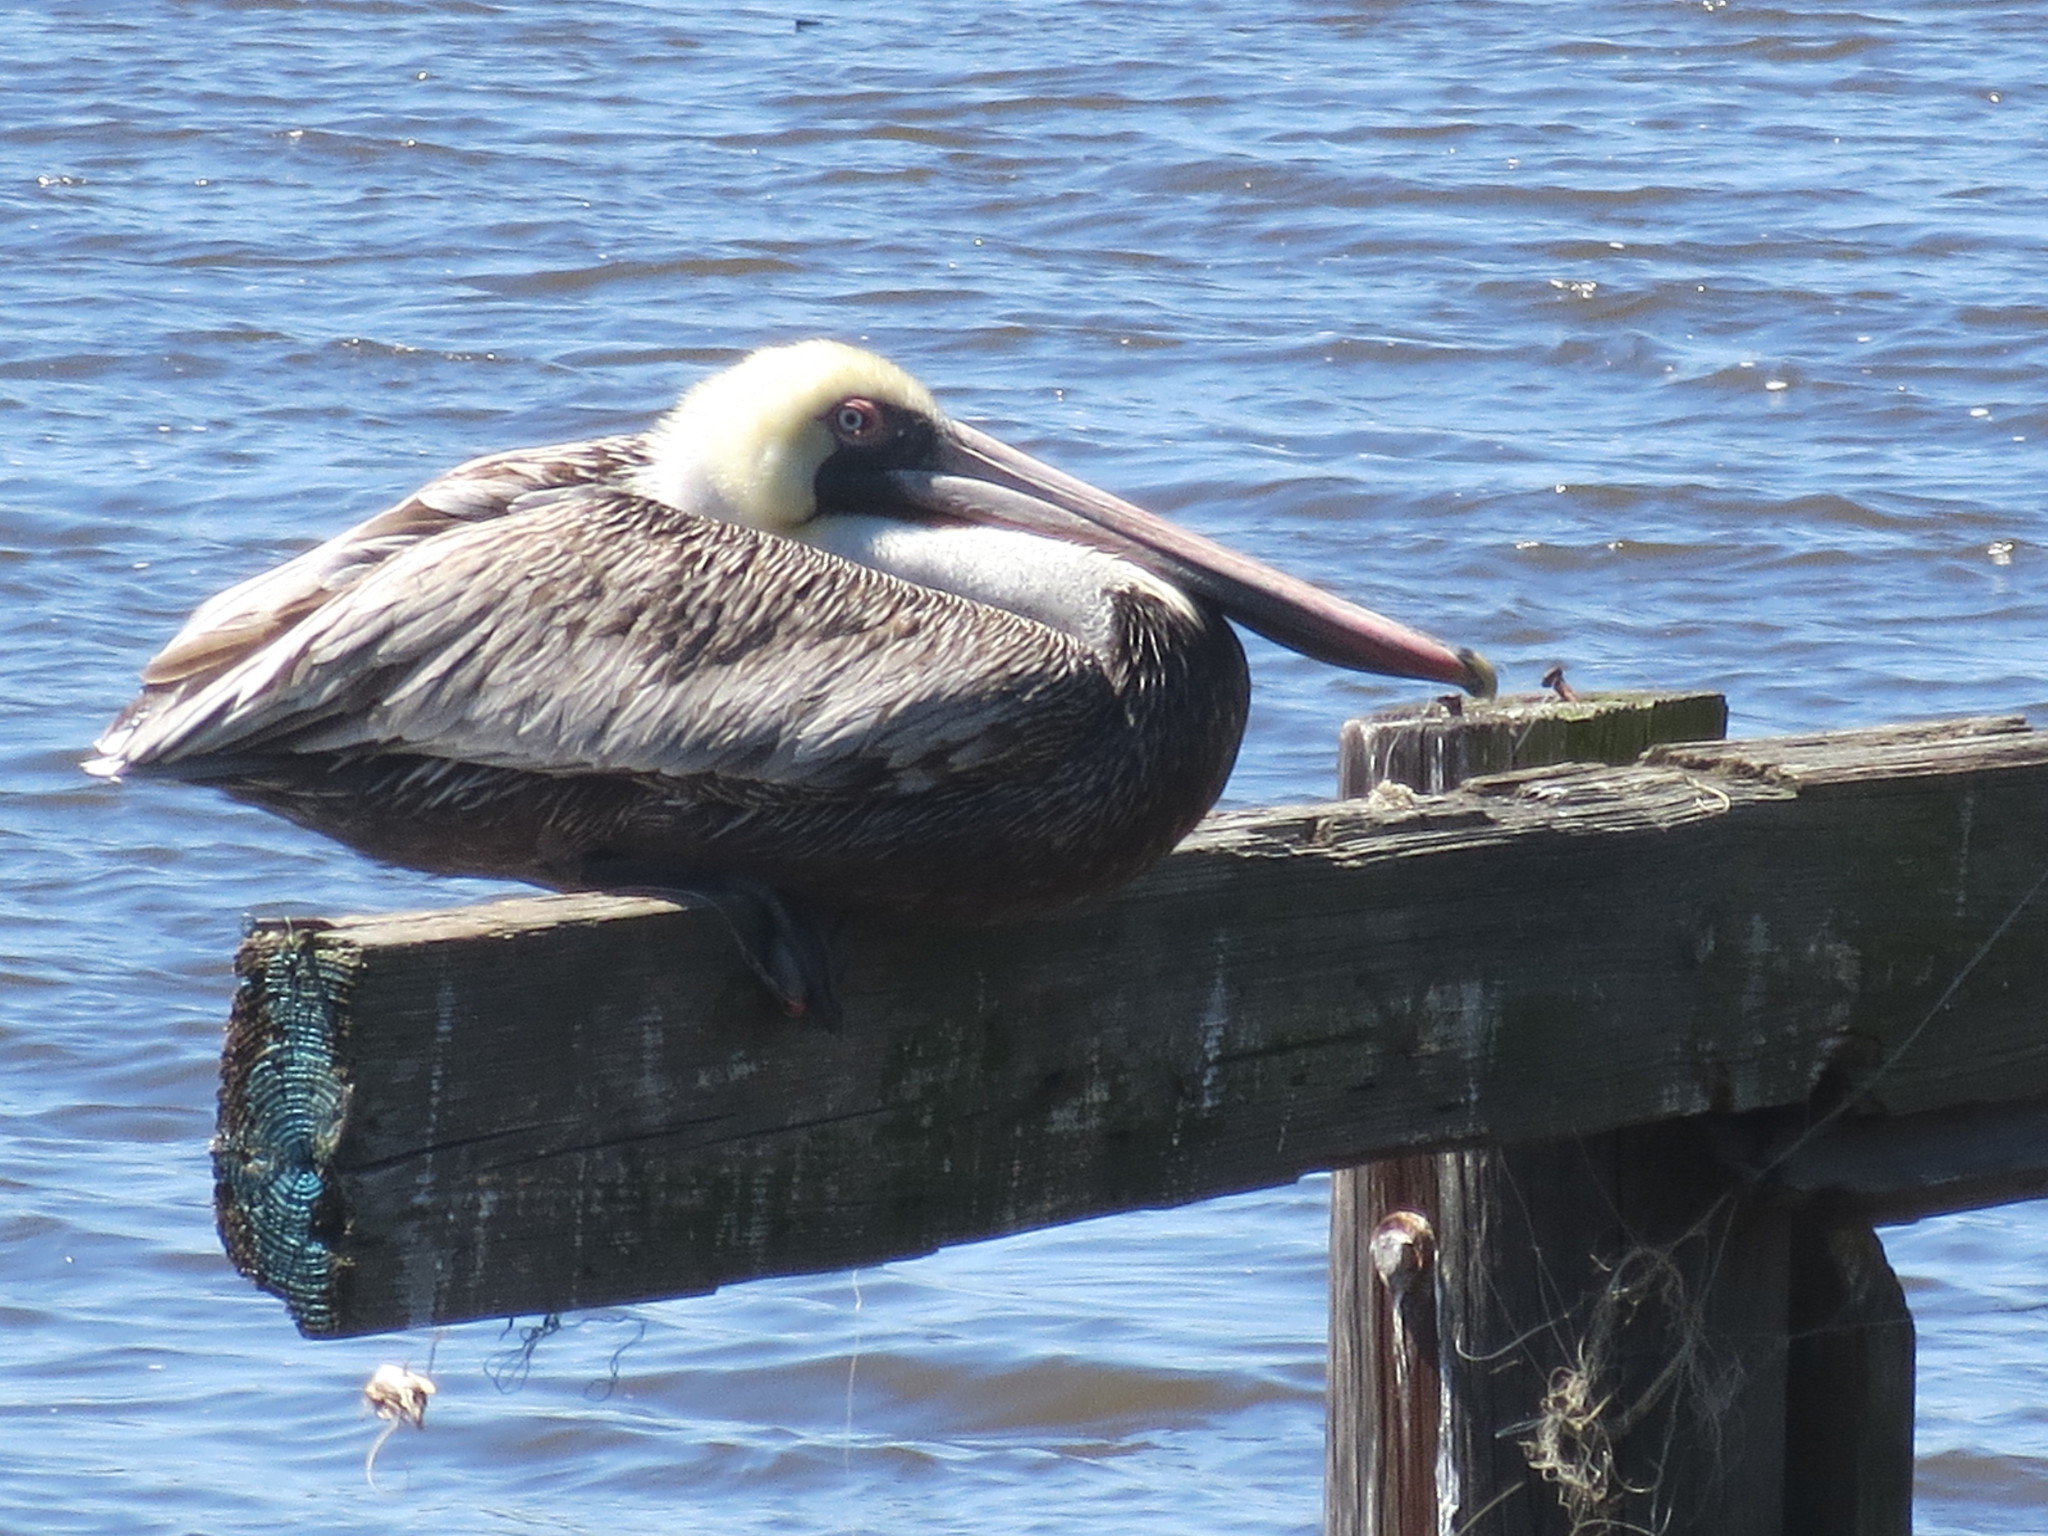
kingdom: Animalia
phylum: Chordata
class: Aves
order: Pelecaniformes
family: Pelecanidae
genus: Pelecanus
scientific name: Pelecanus occidentalis
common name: Brown pelican
